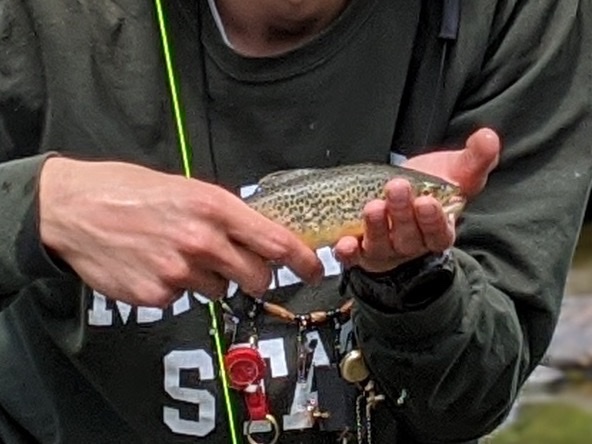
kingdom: Animalia
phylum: Chordata
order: Salmoniformes
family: Salmonidae
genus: Salmo
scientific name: Salmo trutta
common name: Brown trout
